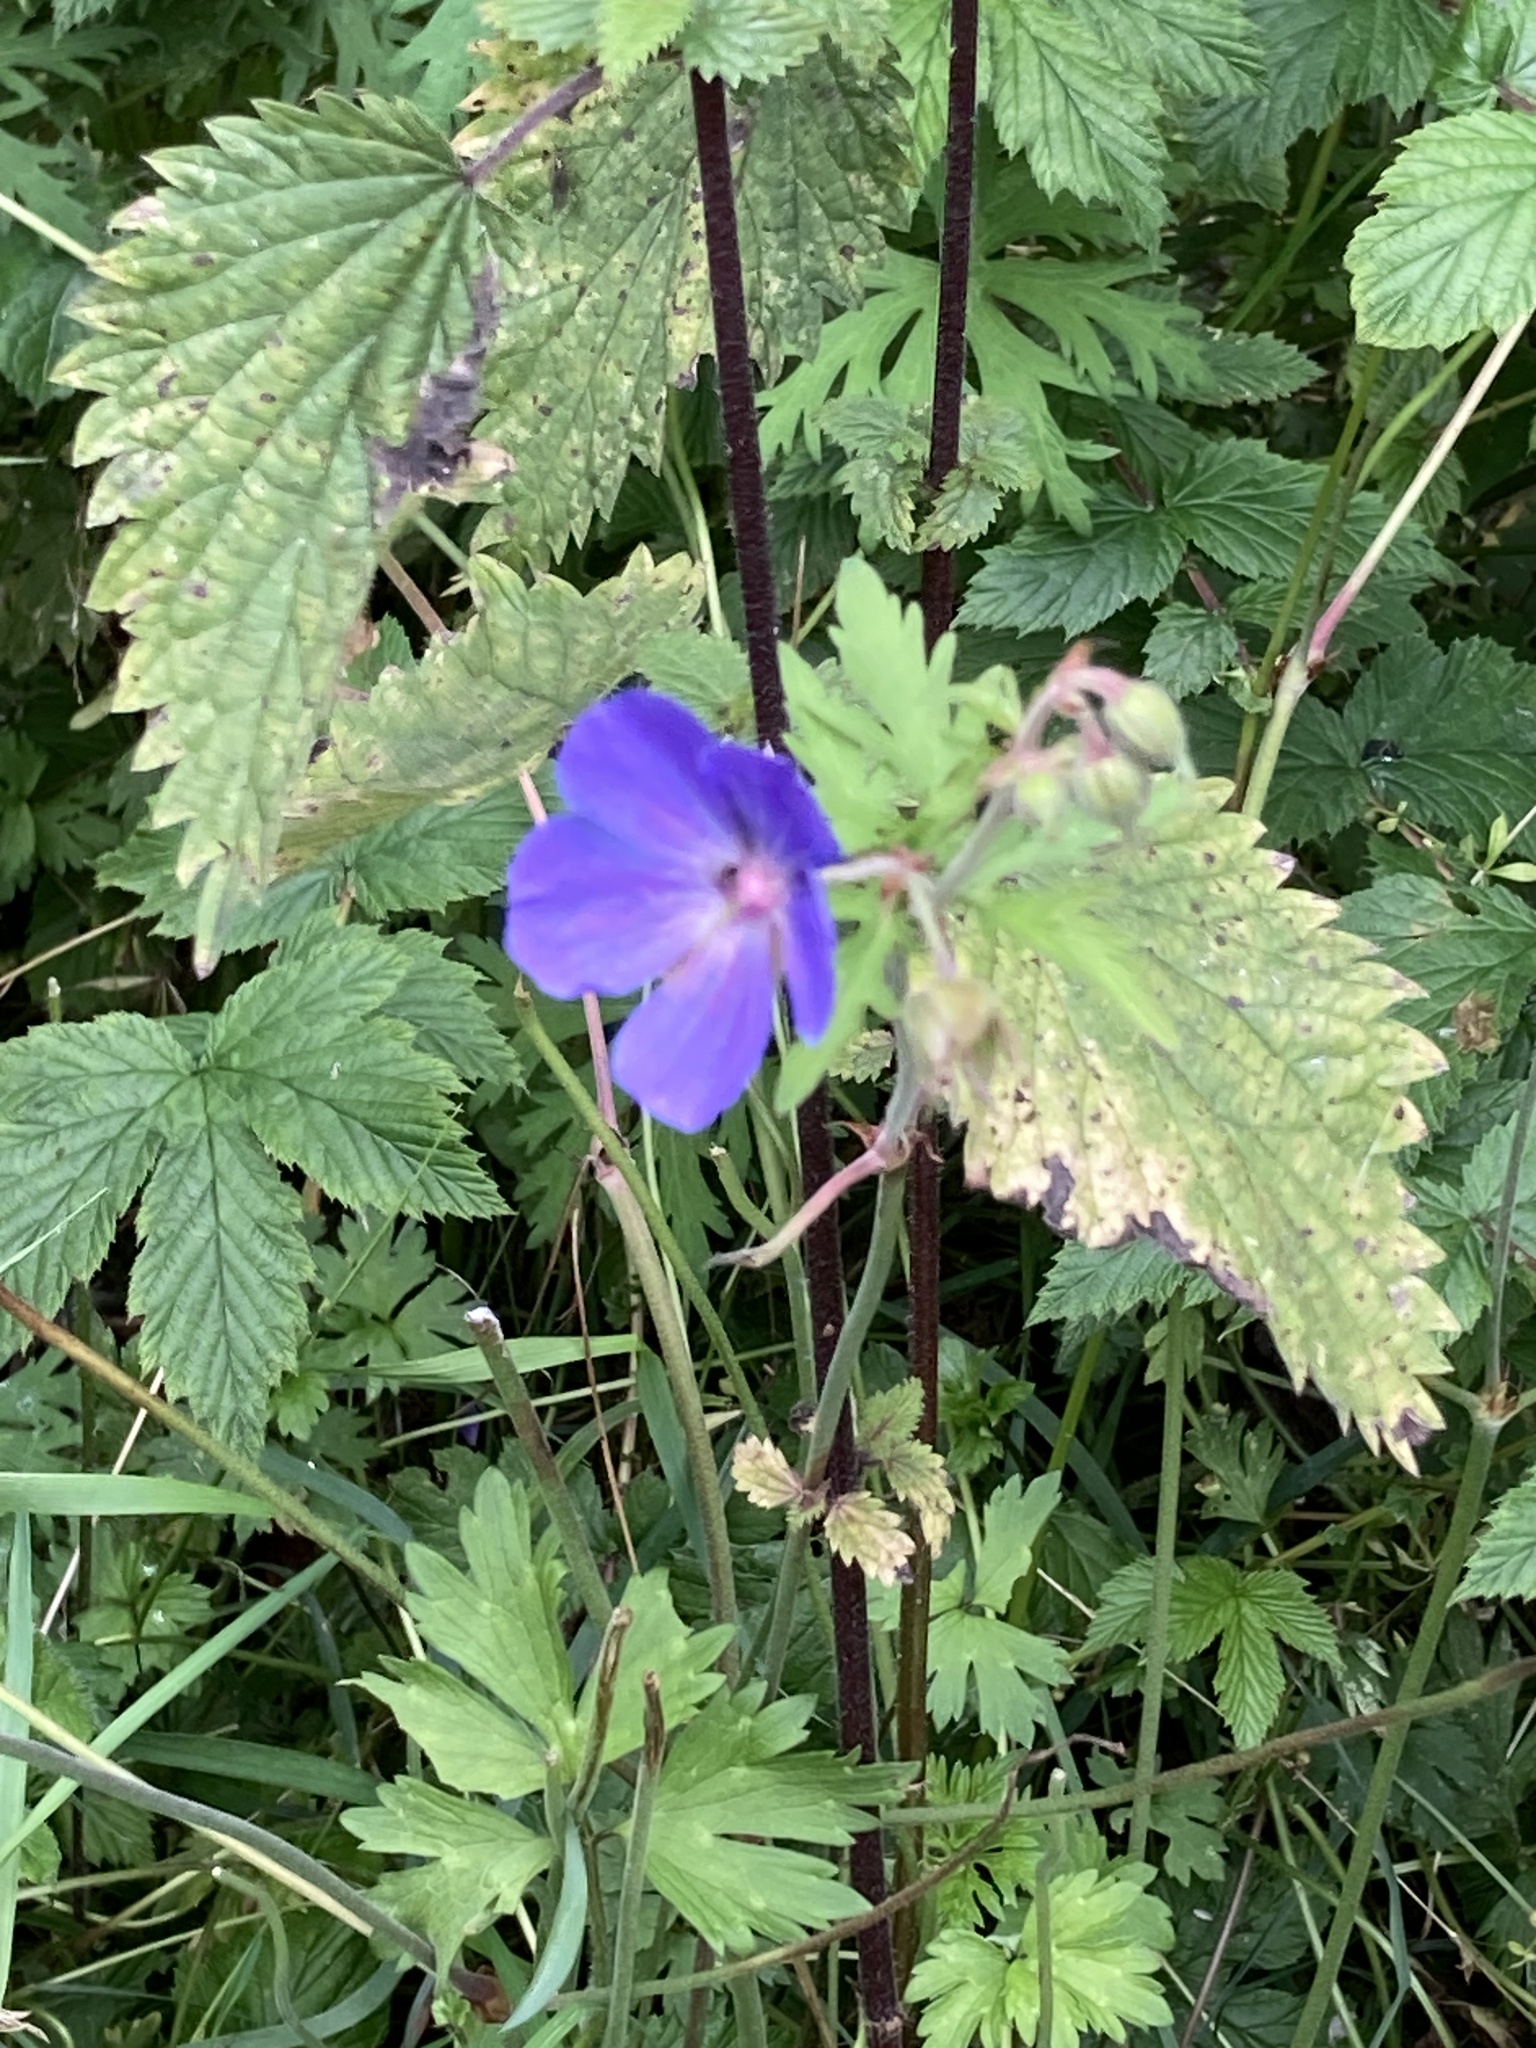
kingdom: Plantae
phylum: Tracheophyta
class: Magnoliopsida
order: Geraniales
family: Geraniaceae
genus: Geranium
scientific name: Geranium pratense
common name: Meadow crane's-bill
